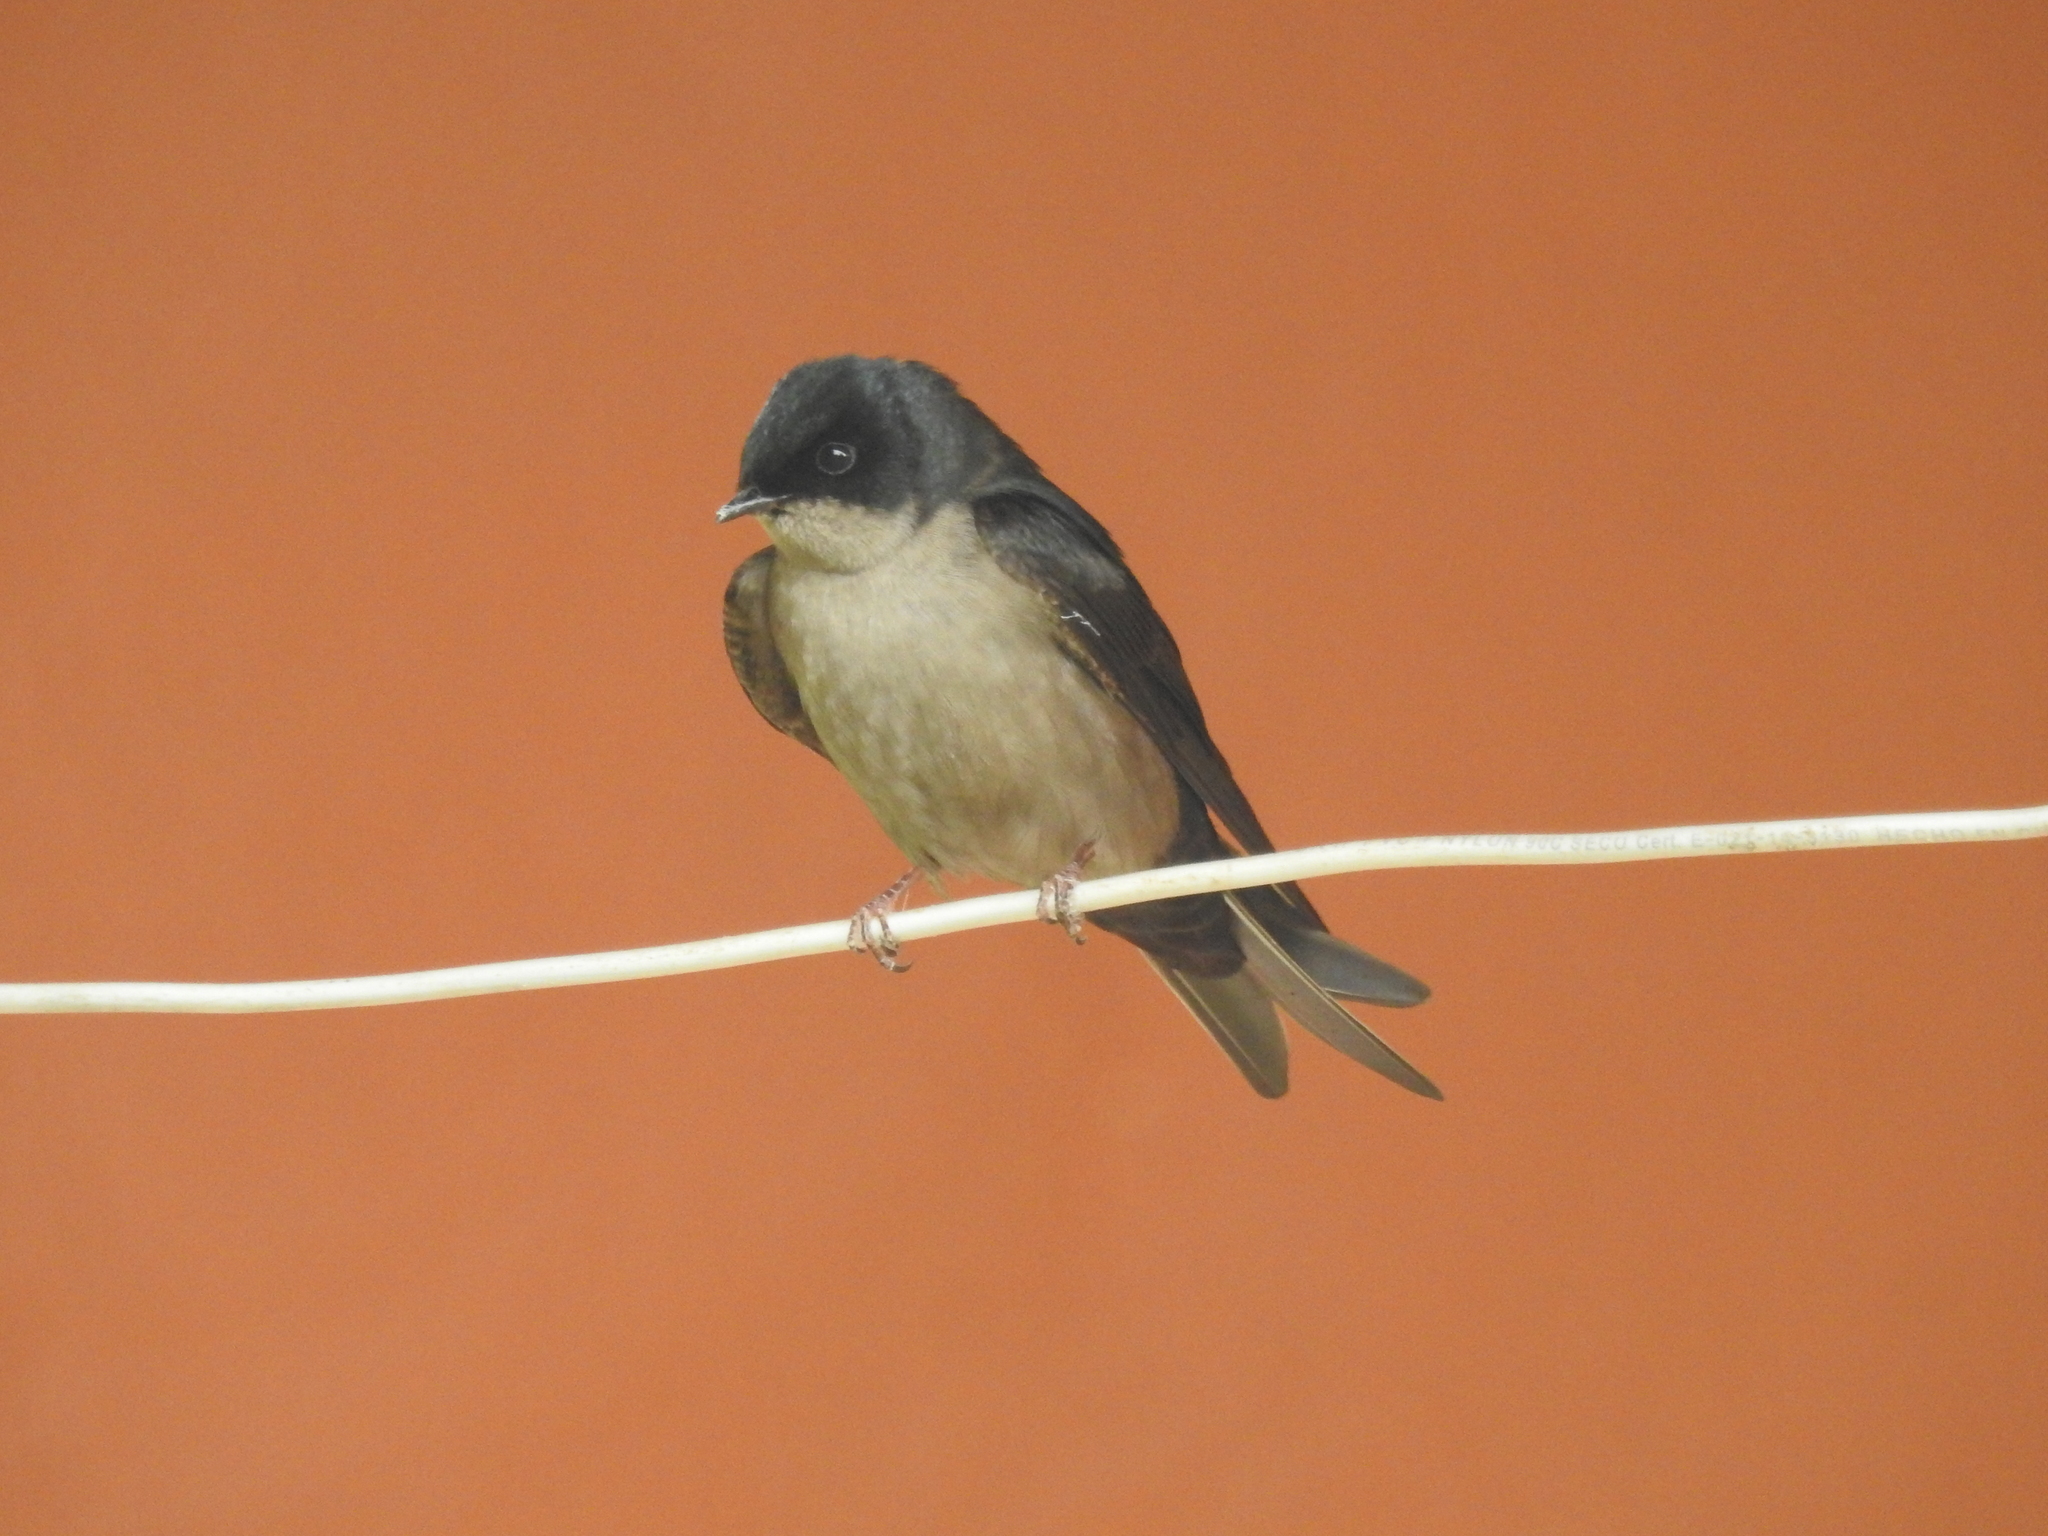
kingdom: Animalia
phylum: Chordata
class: Aves
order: Passeriformes
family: Hirundinidae
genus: Notiochelidon
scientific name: Notiochelidon murina
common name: Brown-bellied swallow
